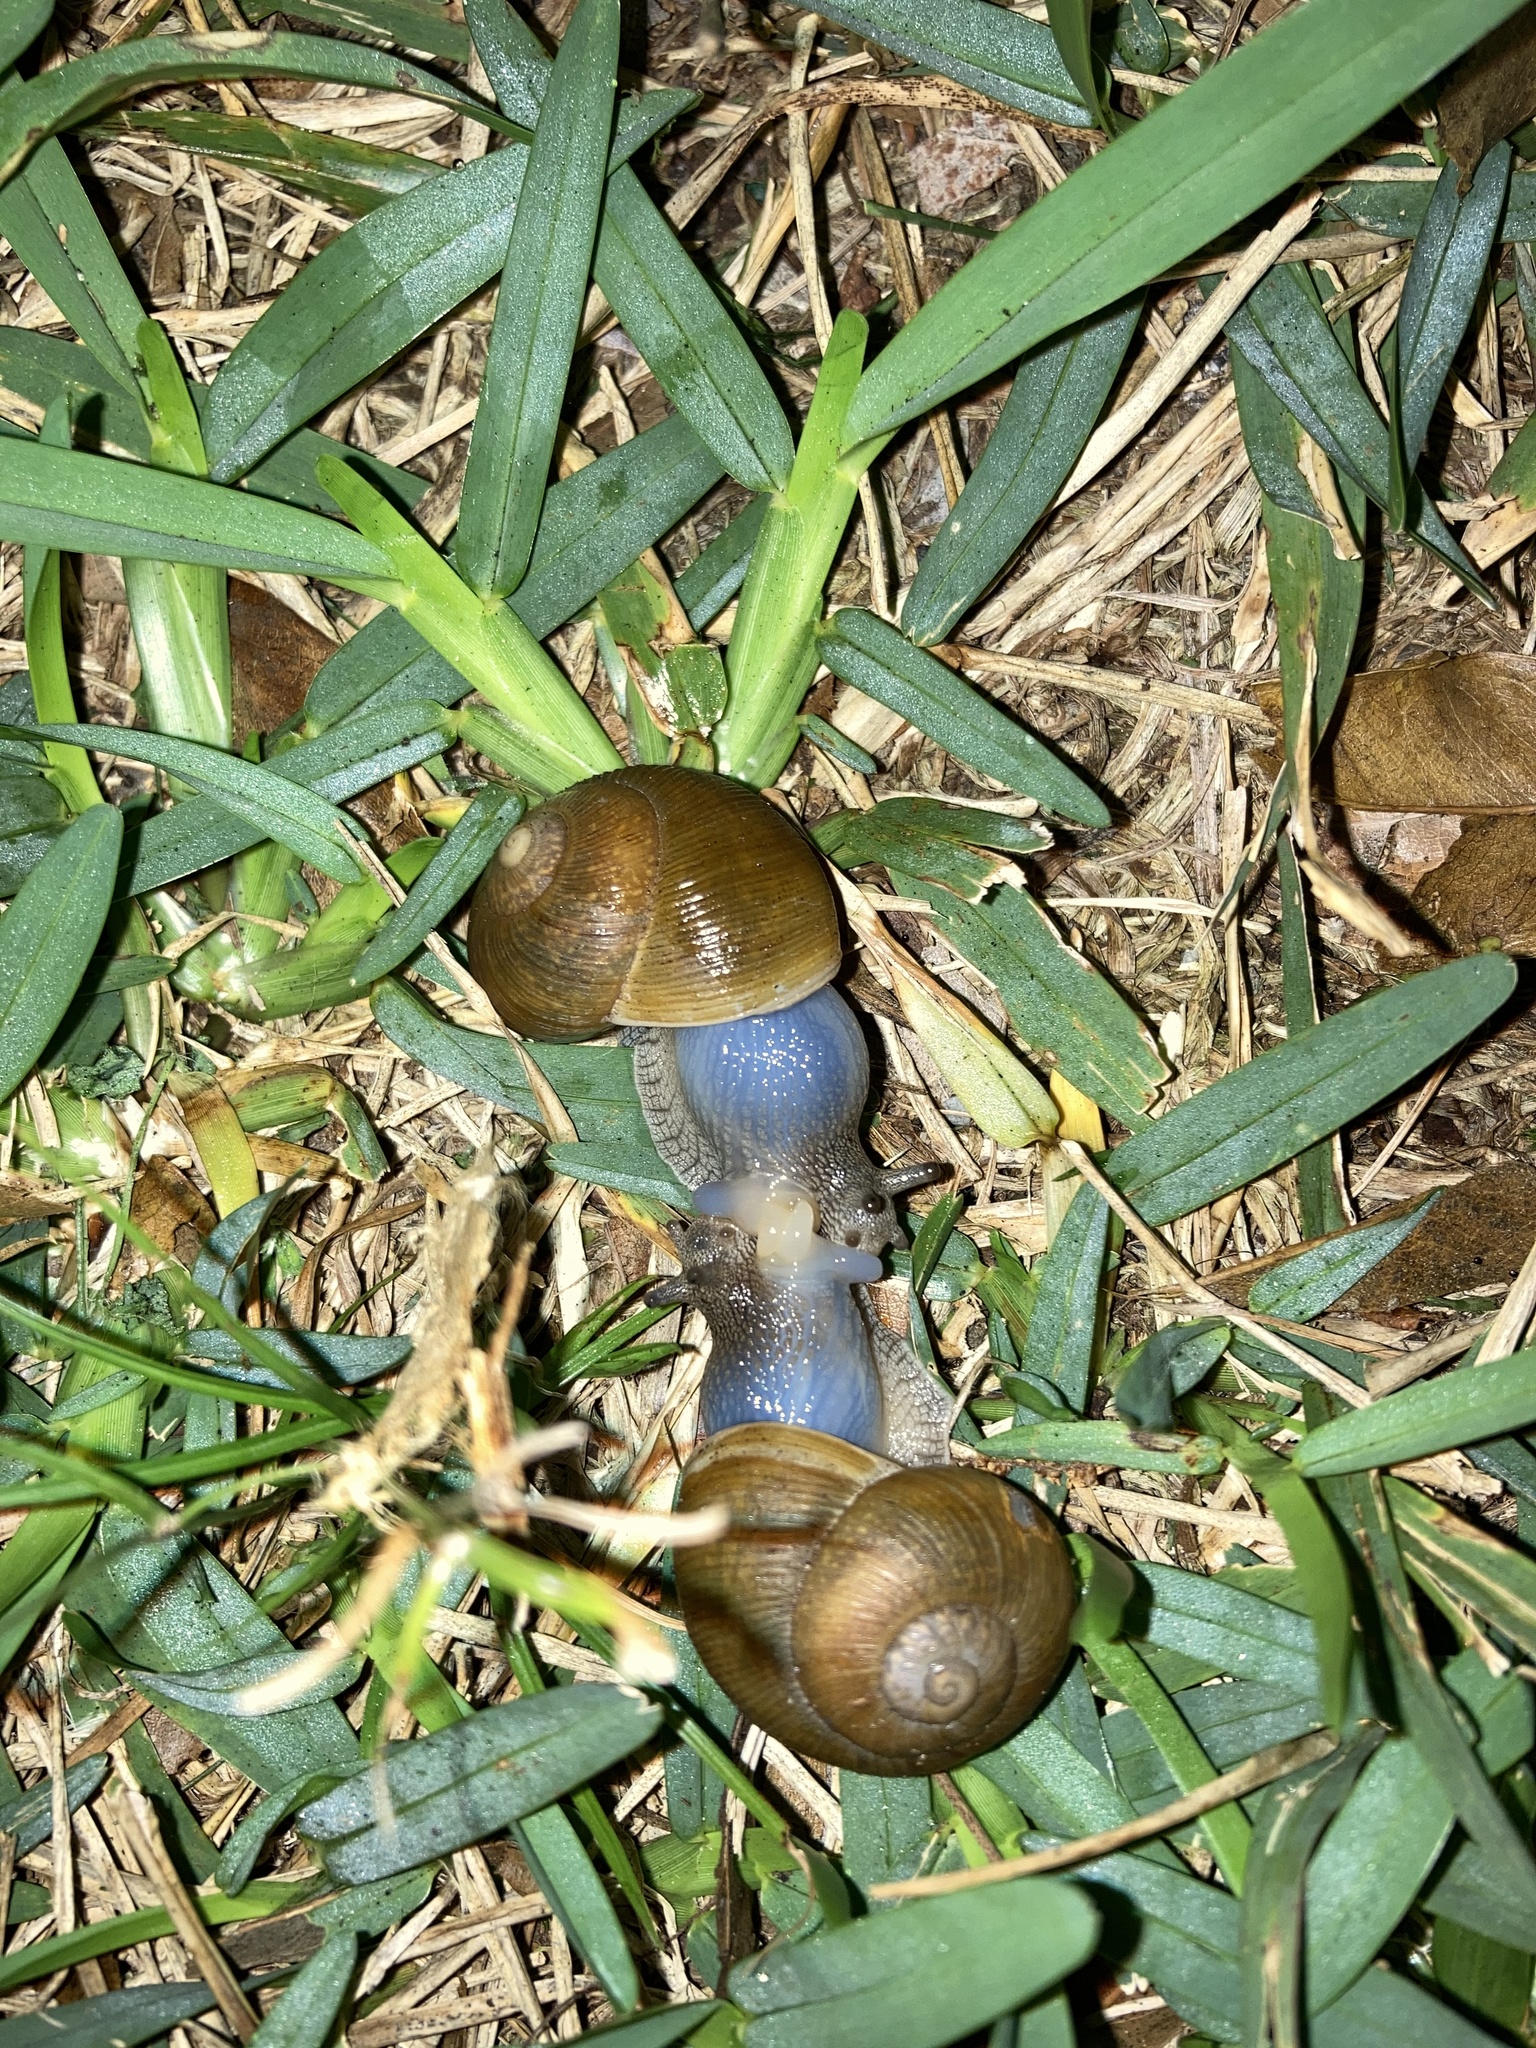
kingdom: Animalia
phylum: Mollusca
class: Gastropoda
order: Stylommatophora
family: Zachrysiidae
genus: Zachrysia
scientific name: Zachrysia provisoria
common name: Garden zachrysia
